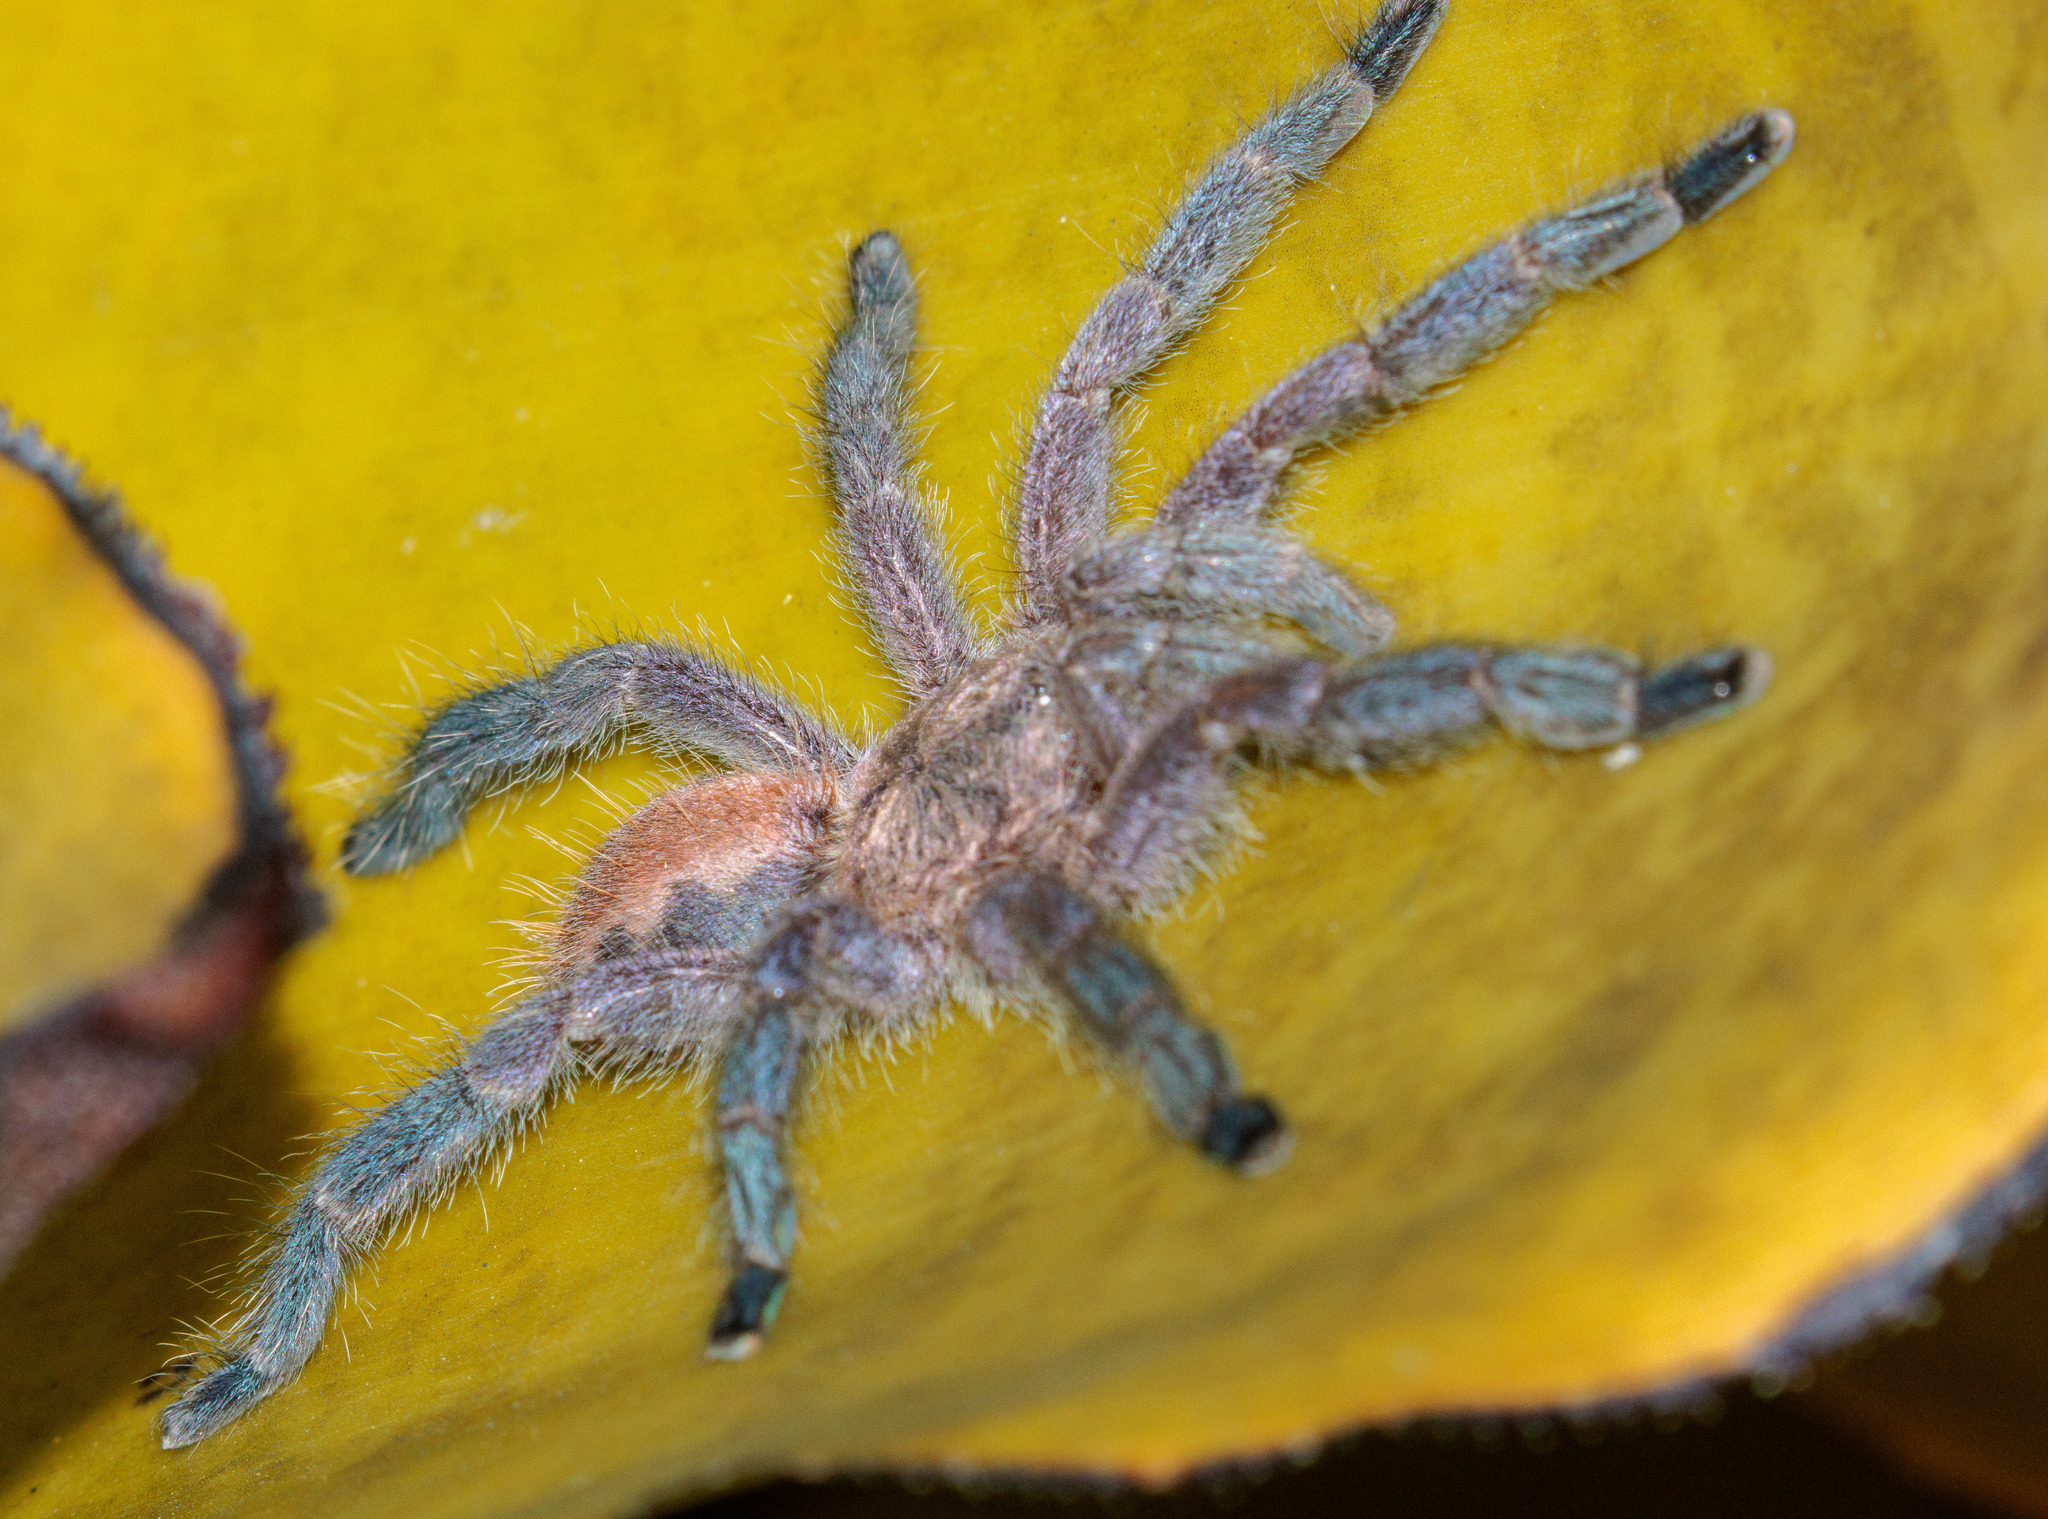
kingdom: Animalia
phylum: Arthropoda
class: Arachnida
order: Araneae
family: Theraphosidae
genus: Pachistopelma
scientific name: Pachistopelma rufonigrum
